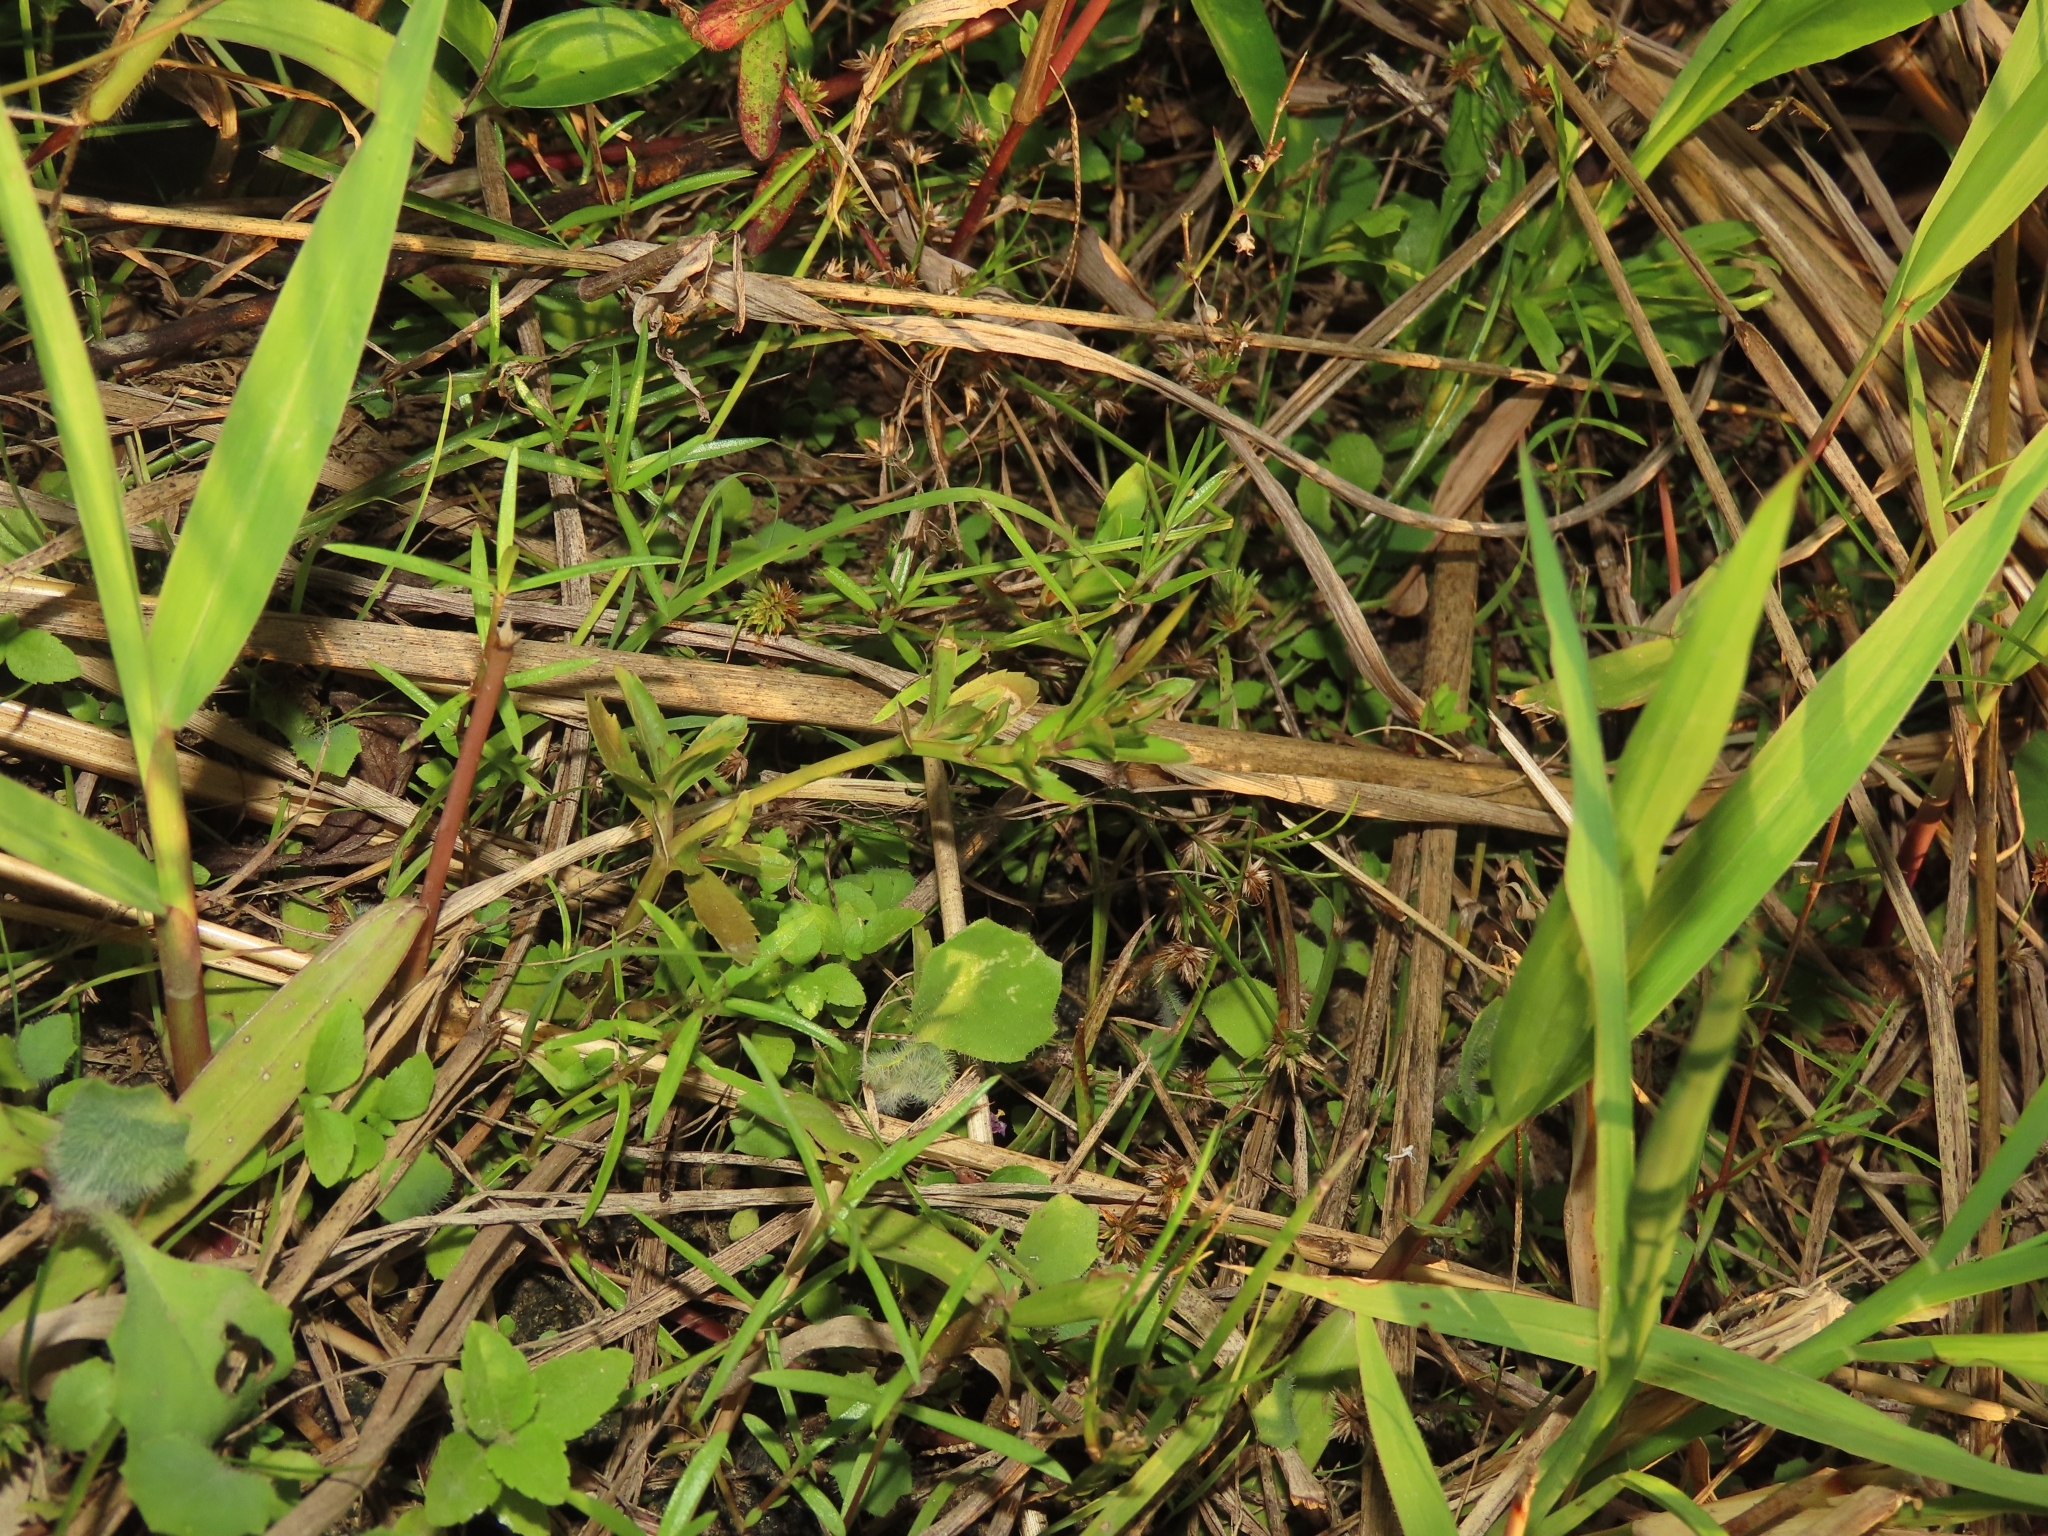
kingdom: Plantae
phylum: Tracheophyta
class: Magnoliopsida
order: Lamiales
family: Linderniaceae
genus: Bonnaya
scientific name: Bonnaya antipoda
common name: Sparrow false pimpernel
